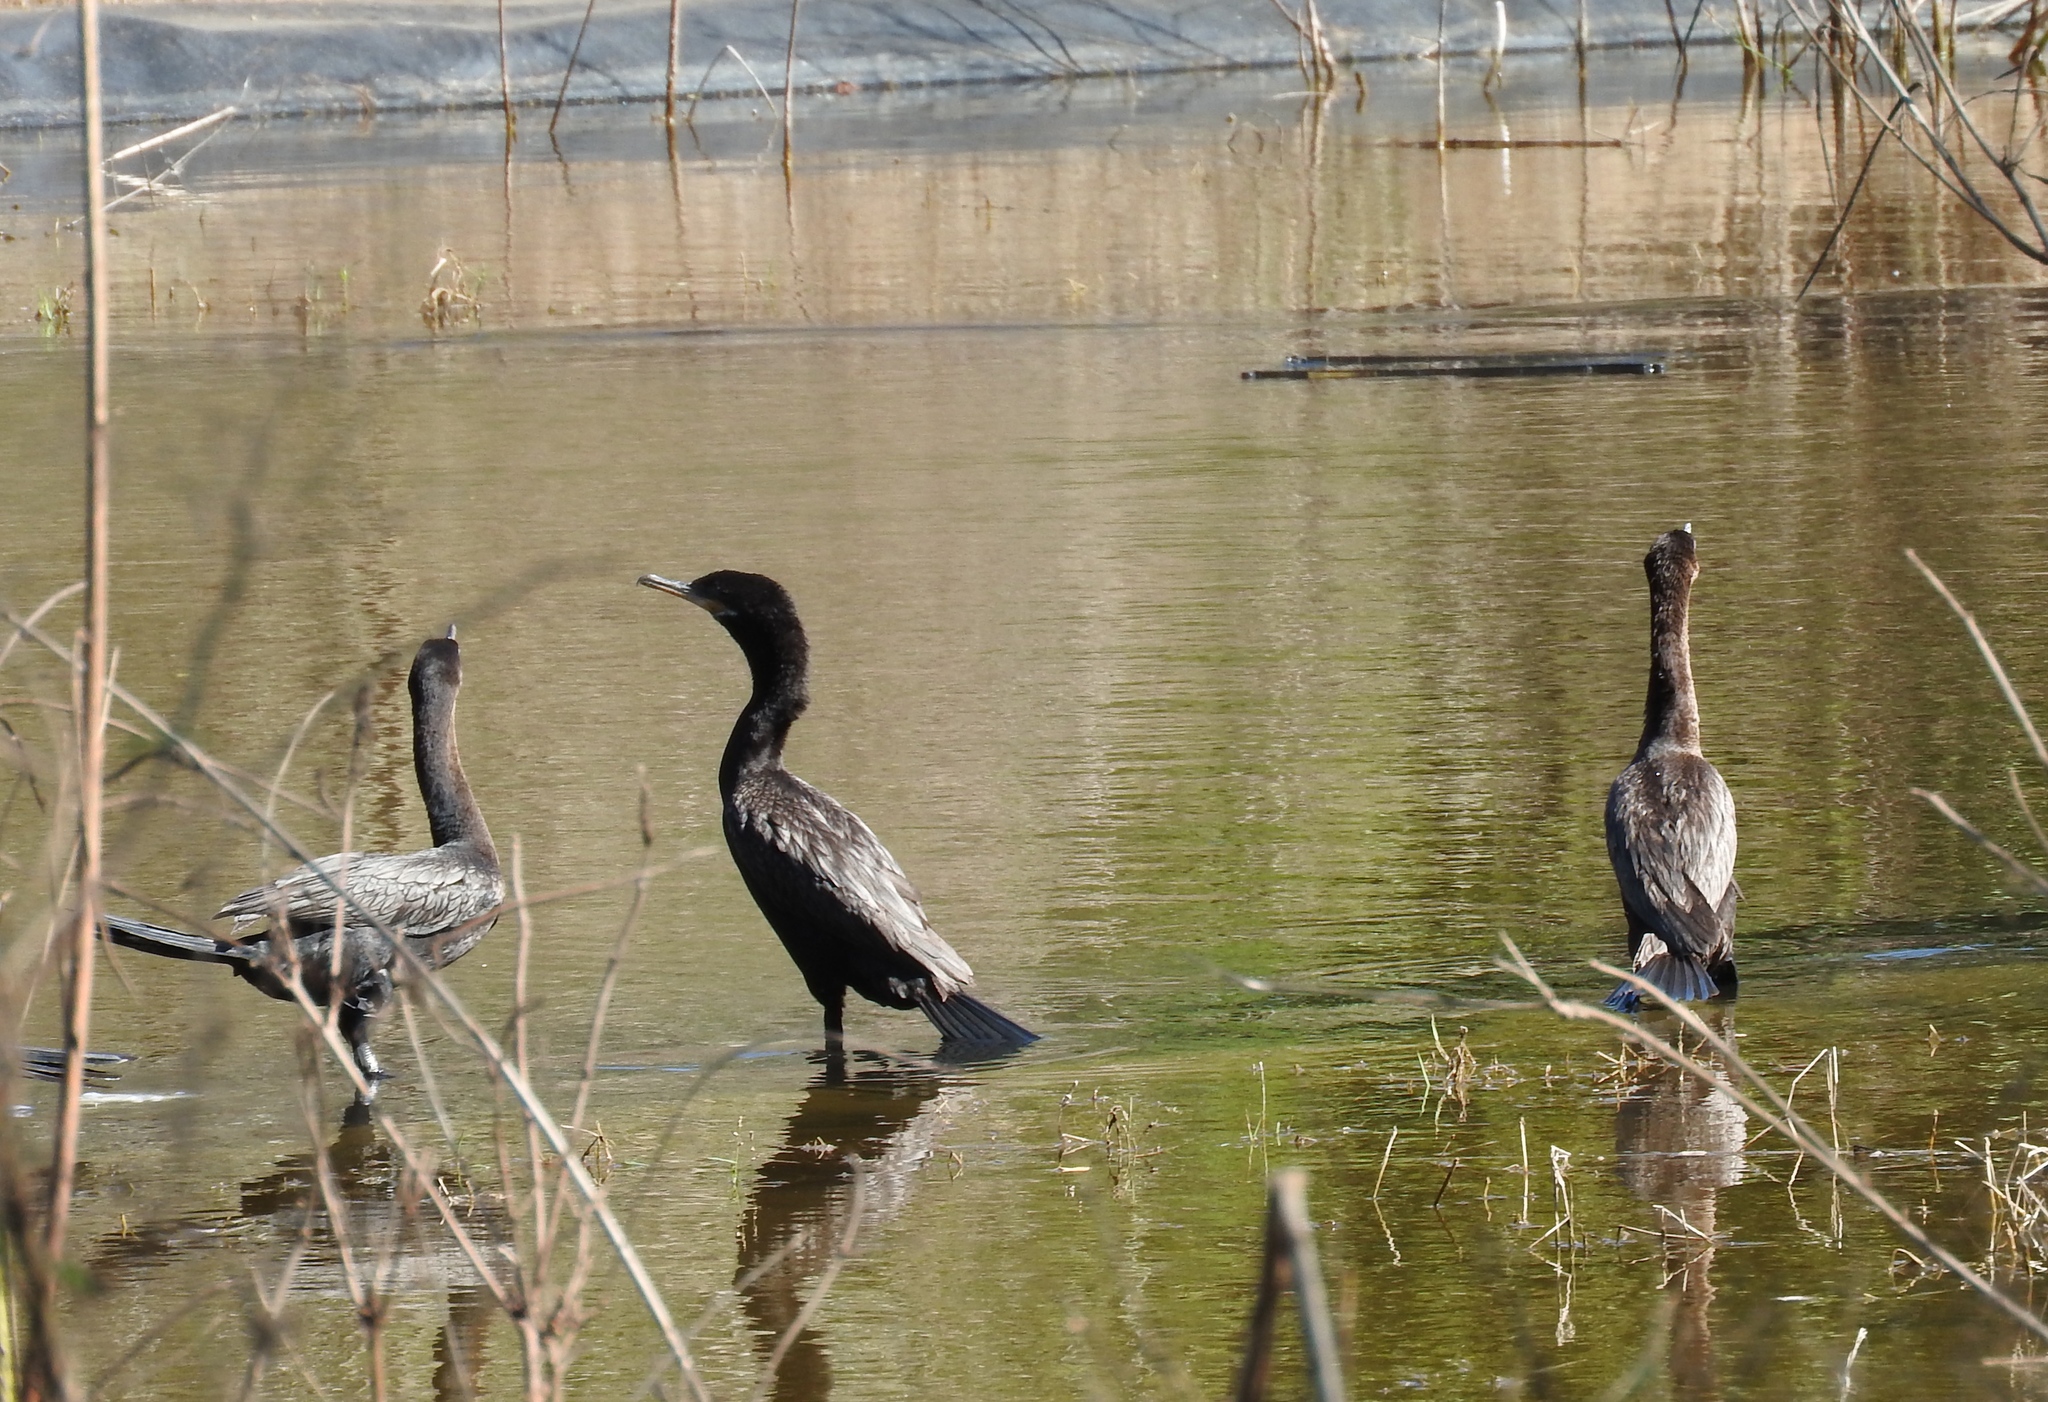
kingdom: Animalia
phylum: Chordata
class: Aves
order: Suliformes
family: Phalacrocoracidae
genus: Phalacrocorax
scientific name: Phalacrocorax brasilianus
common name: Neotropic cormorant
